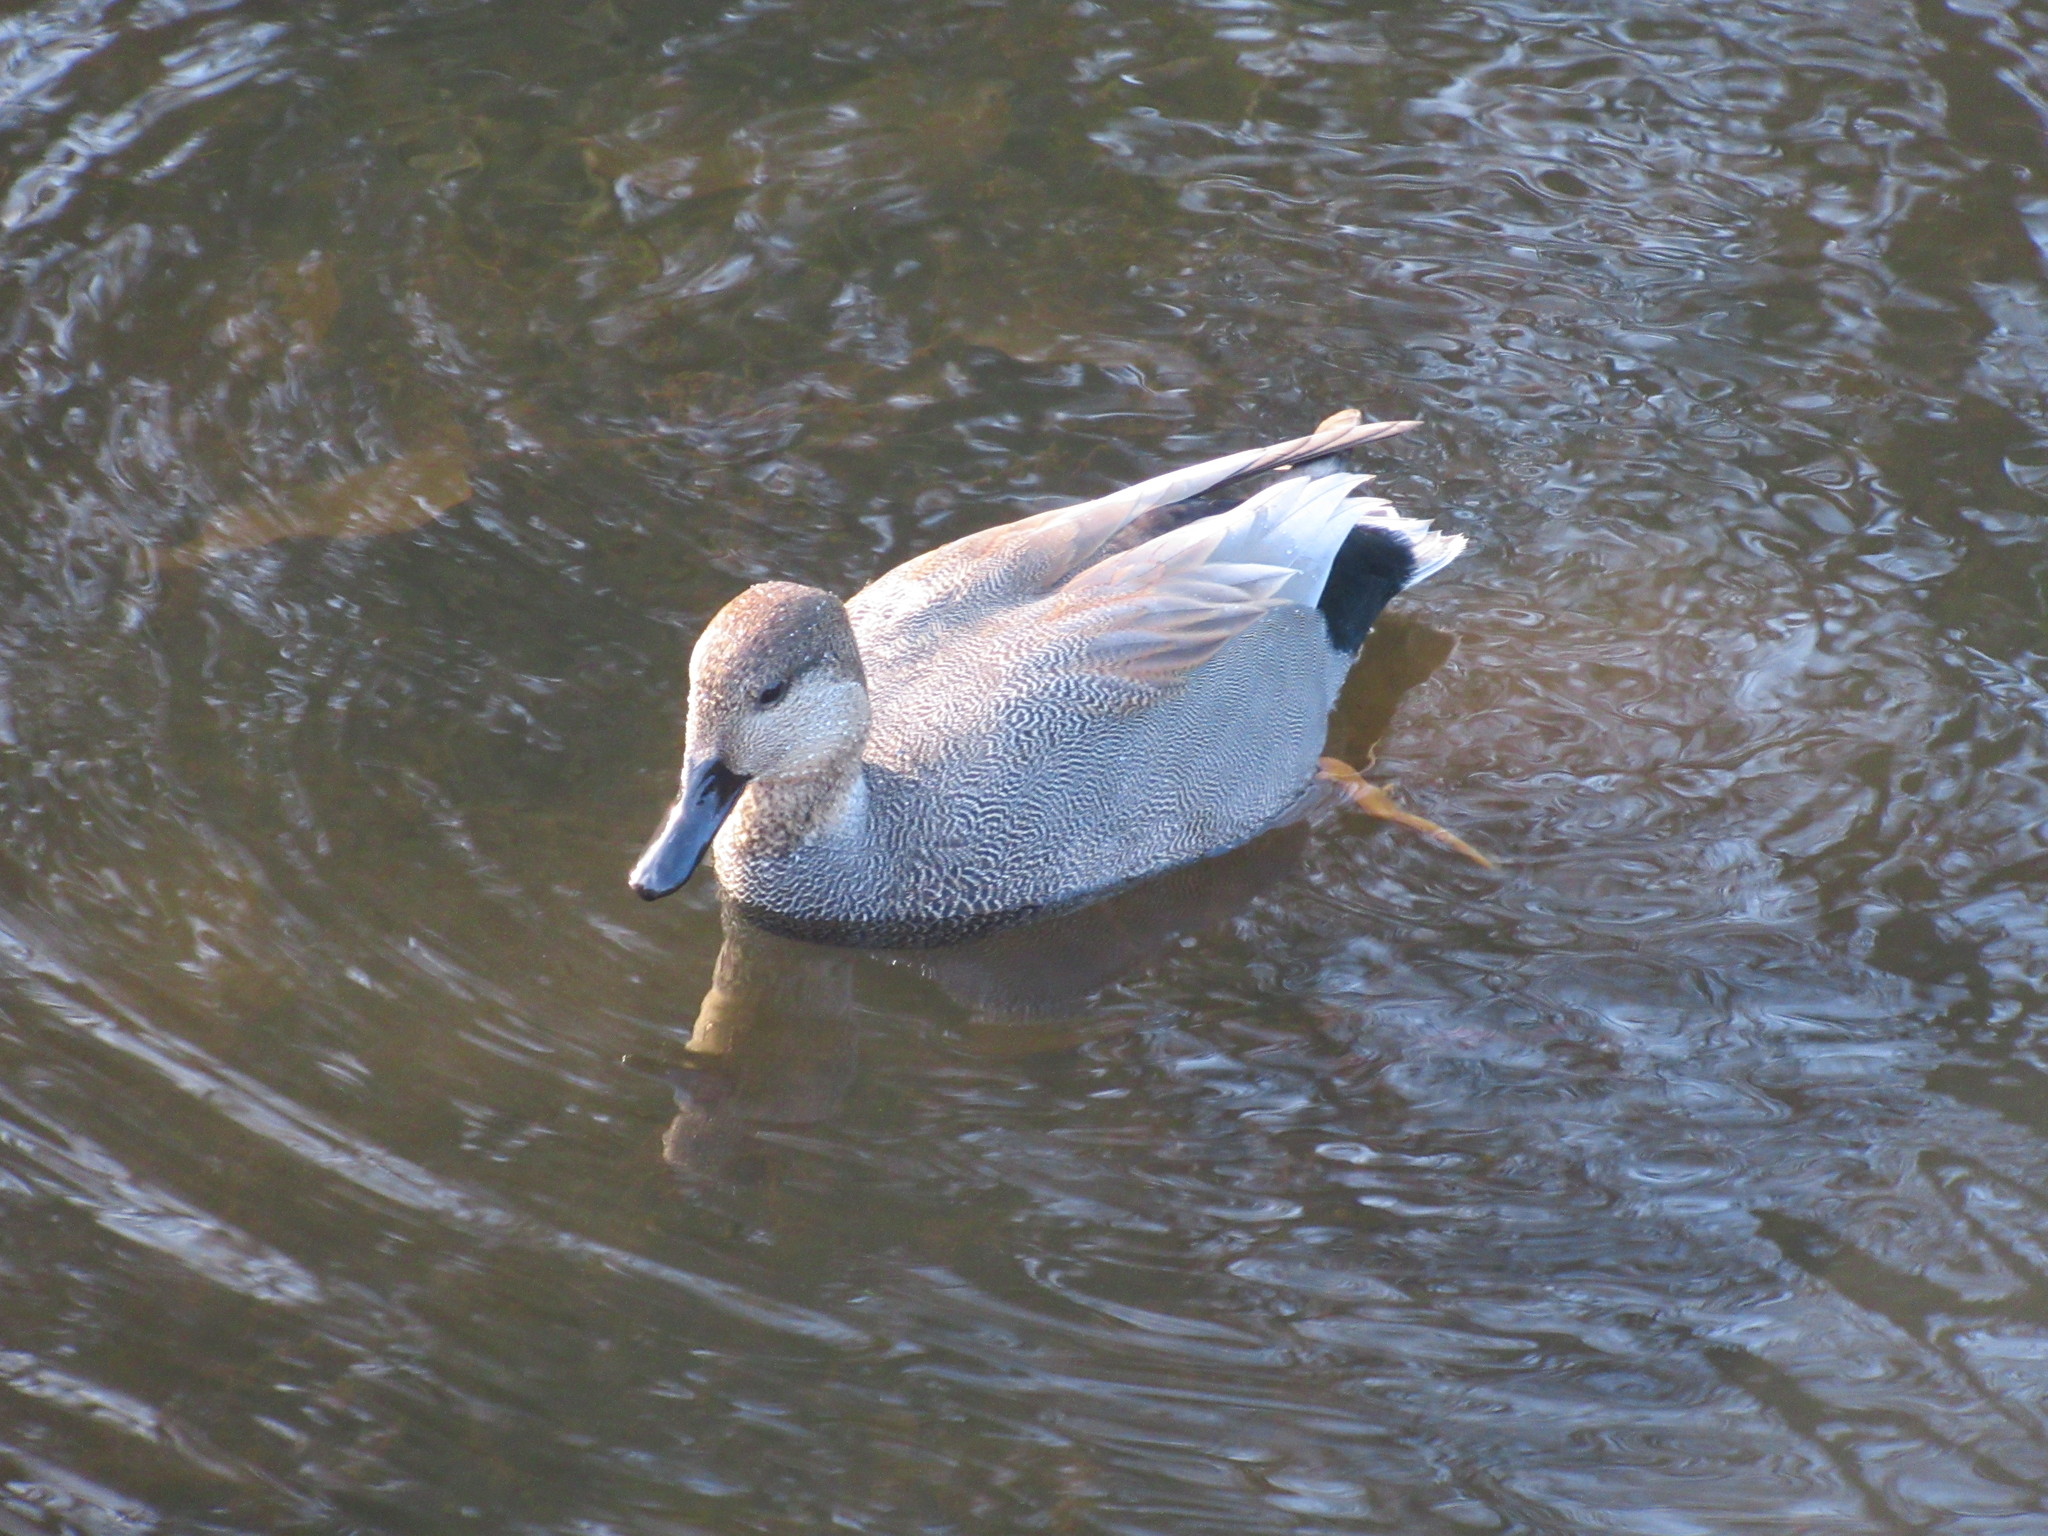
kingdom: Animalia
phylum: Chordata
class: Aves
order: Anseriformes
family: Anatidae
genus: Mareca
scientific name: Mareca strepera
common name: Gadwall
